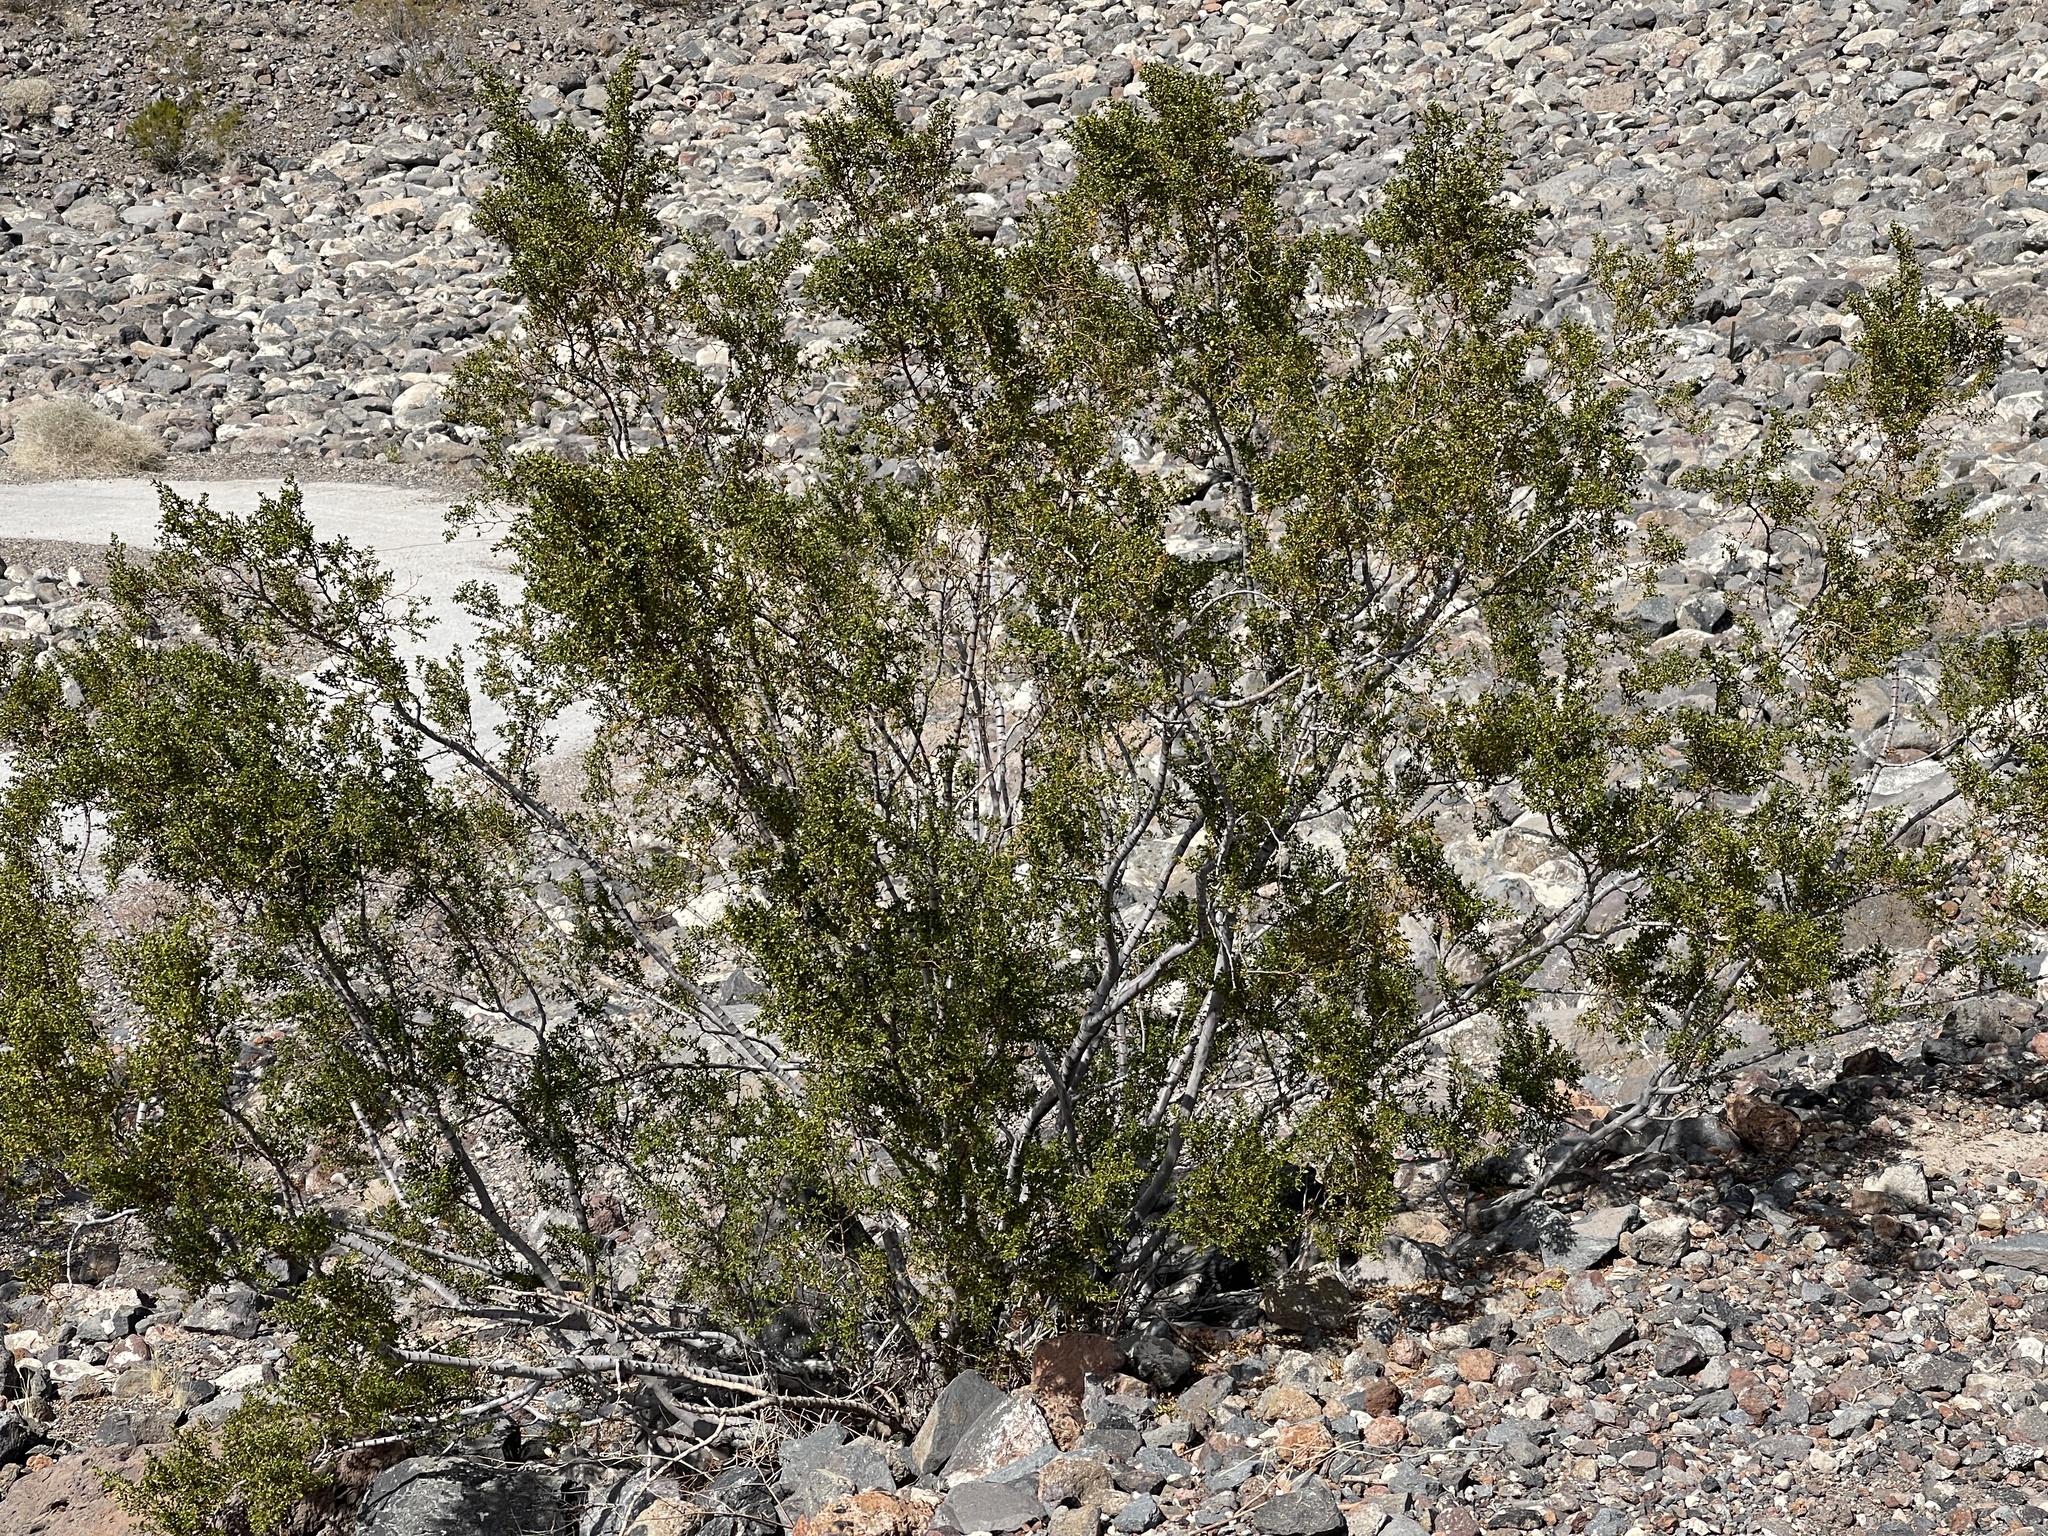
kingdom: Plantae
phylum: Tracheophyta
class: Magnoliopsida
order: Zygophyllales
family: Zygophyllaceae
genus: Larrea
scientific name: Larrea tridentata
